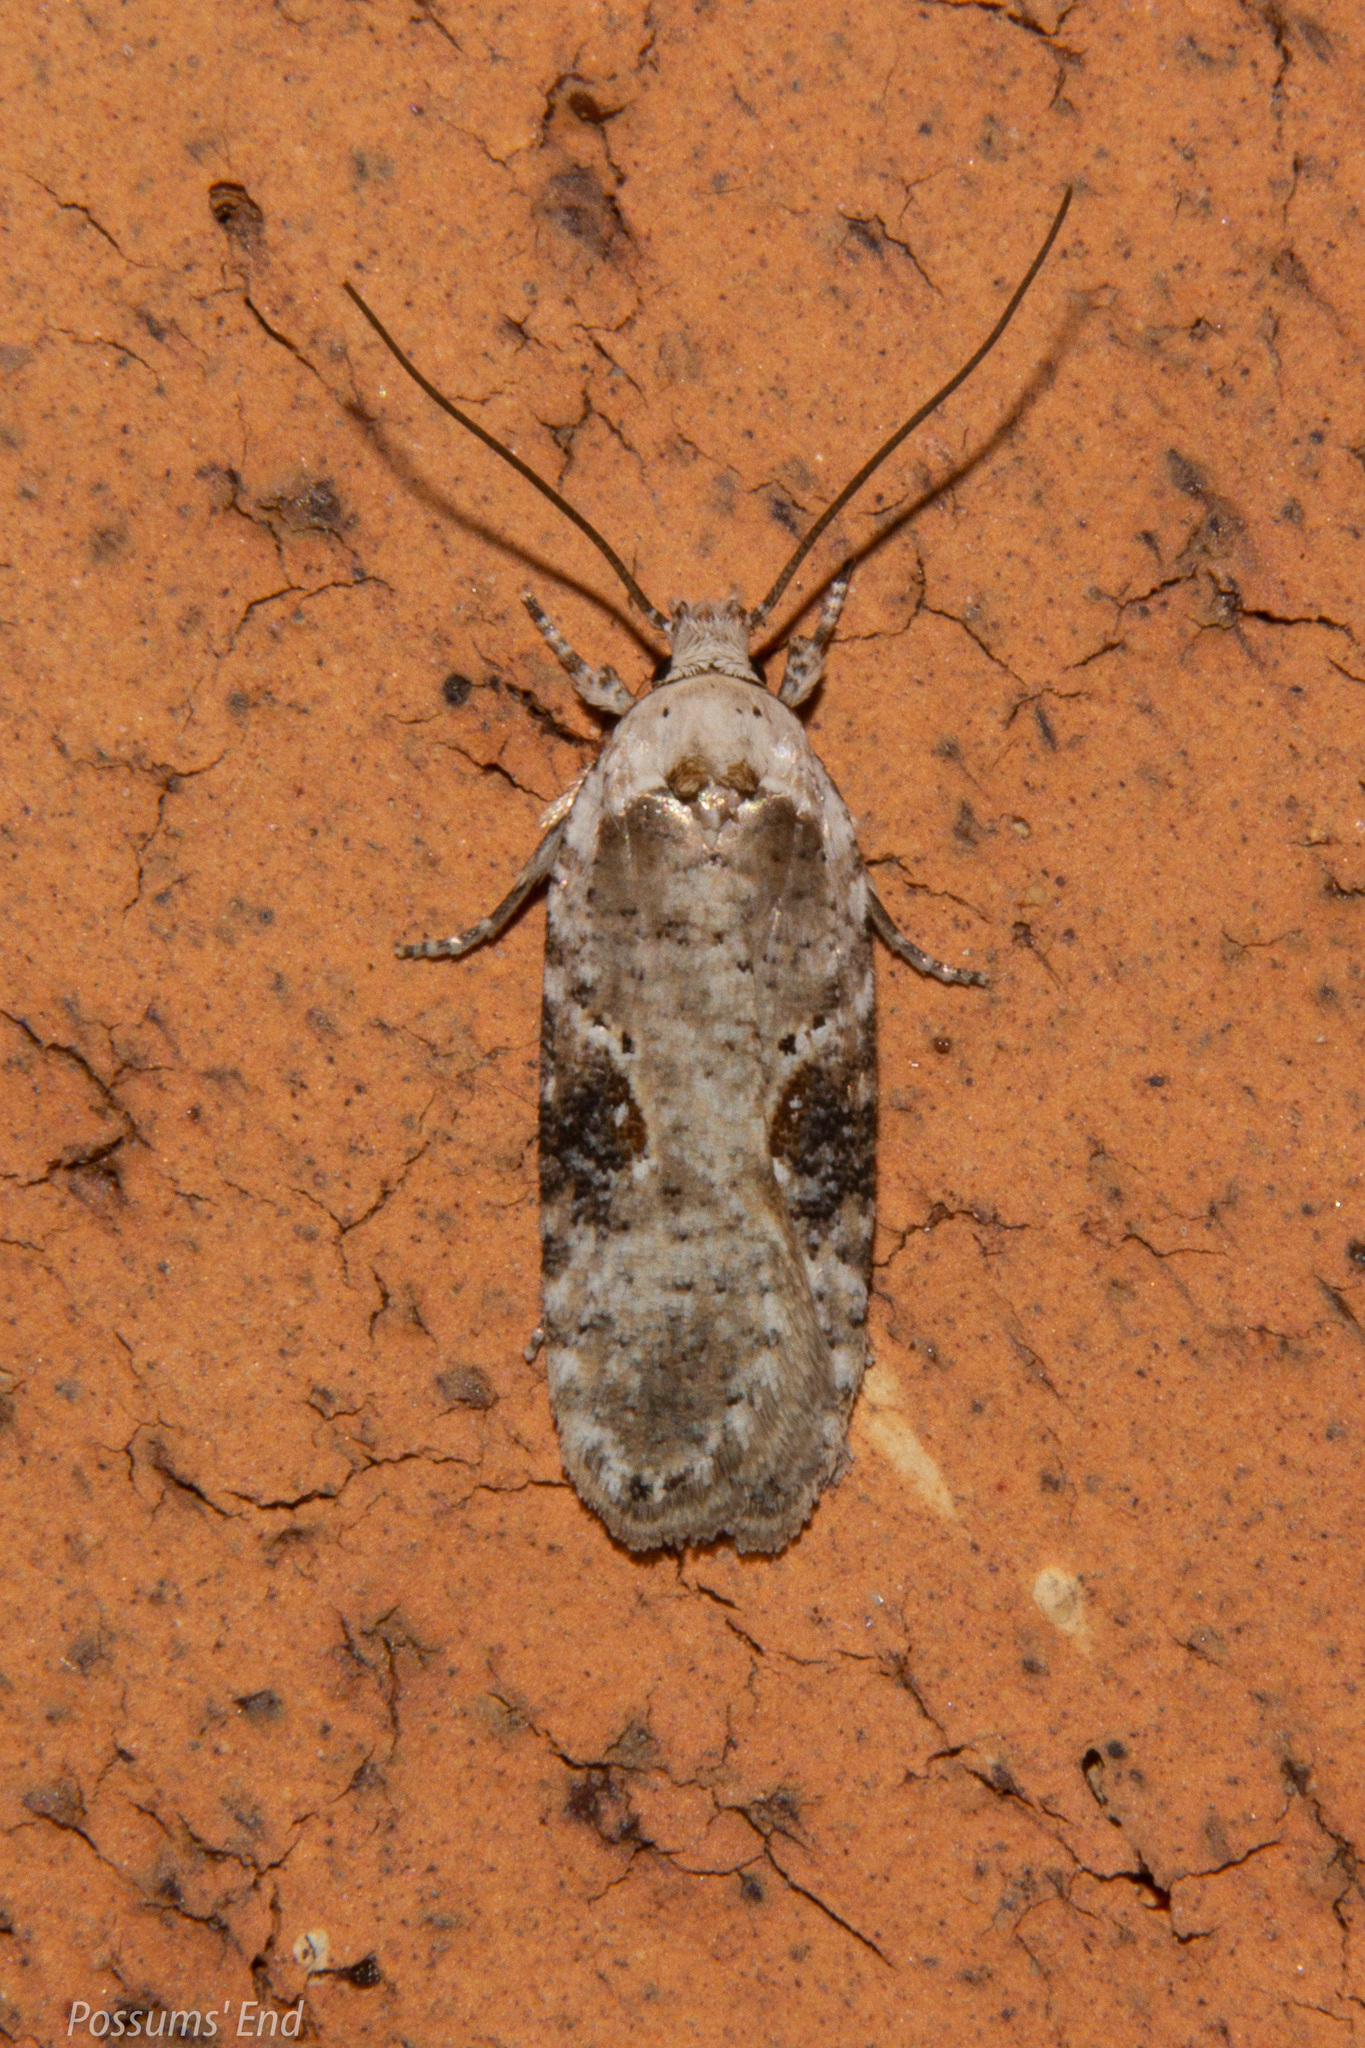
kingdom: Animalia
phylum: Arthropoda
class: Insecta
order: Lepidoptera
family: Depressariidae
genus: Agonopterix
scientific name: Agonopterix alstroemeriana
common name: Moth
